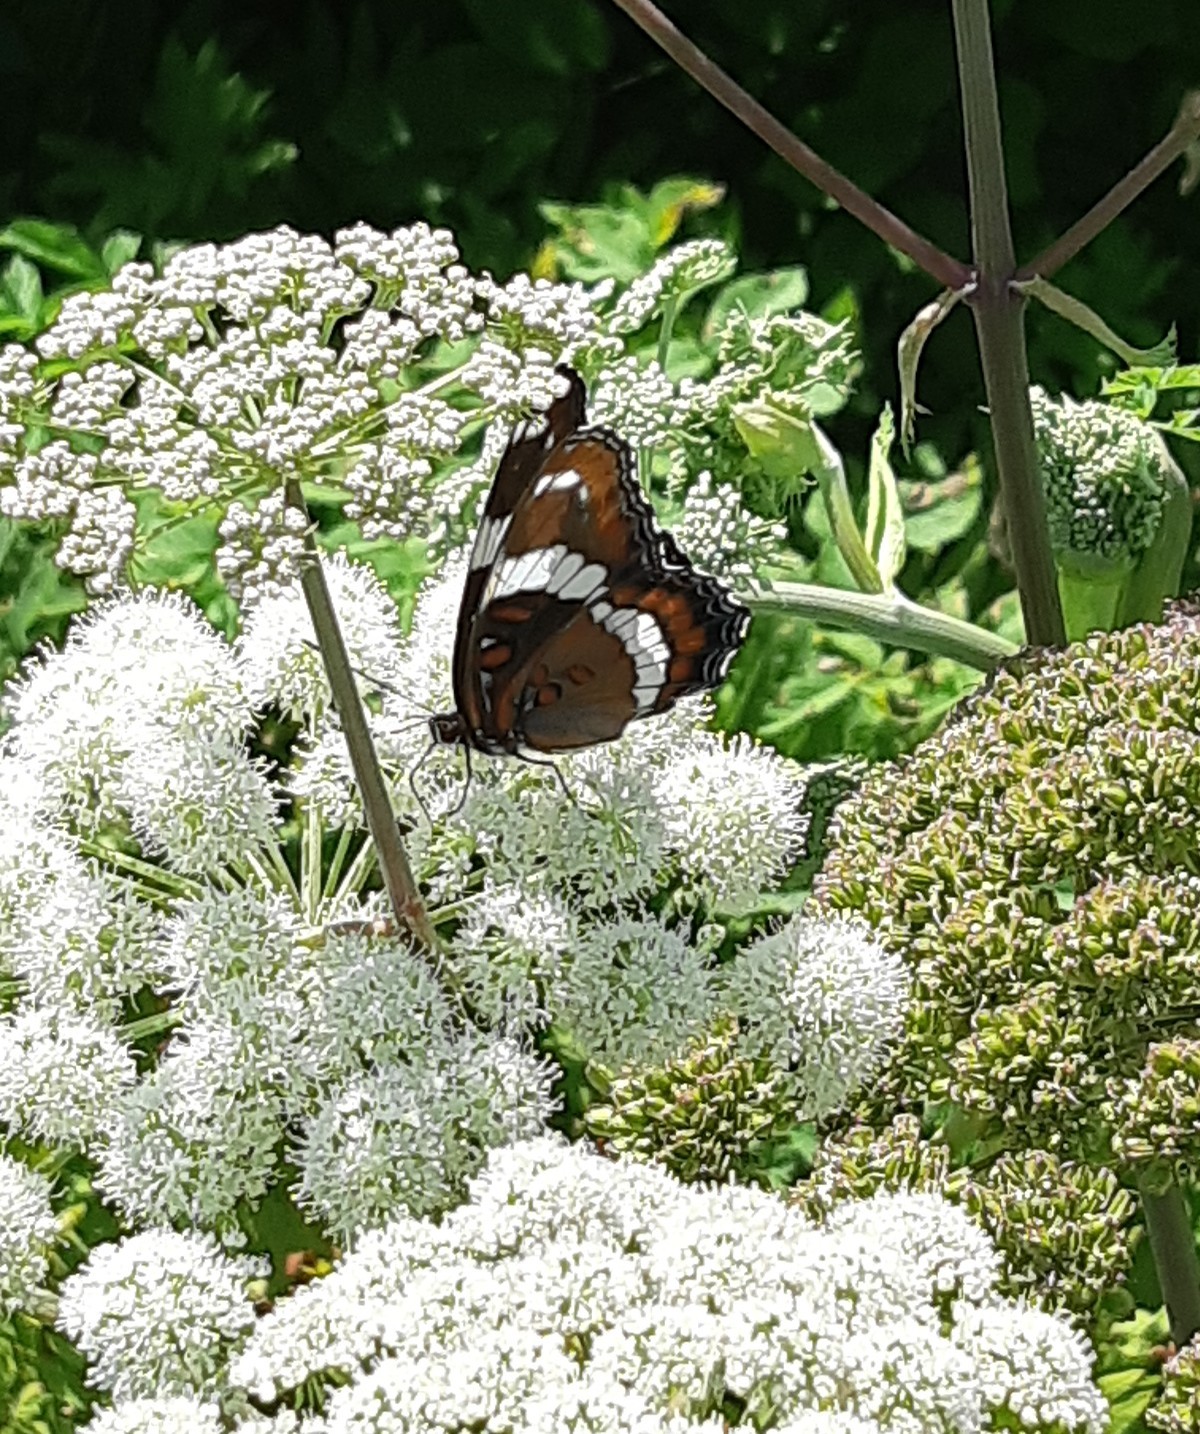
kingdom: Animalia
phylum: Arthropoda
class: Insecta
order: Lepidoptera
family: Nymphalidae
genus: Limenitis
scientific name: Limenitis arthemis
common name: Red-spotted admiral
